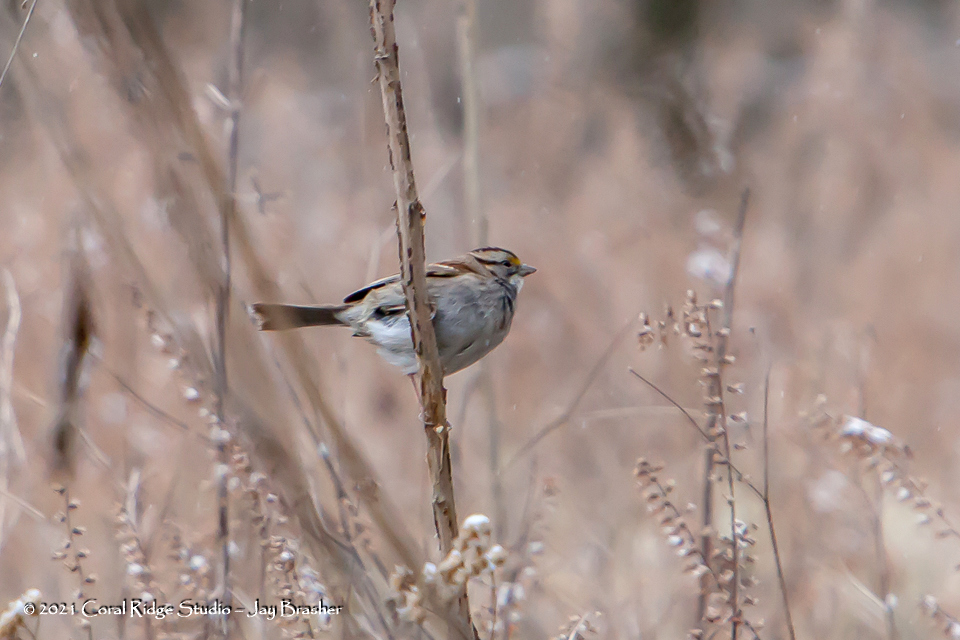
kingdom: Animalia
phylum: Chordata
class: Aves
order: Passeriformes
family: Passerellidae
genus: Zonotrichia
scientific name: Zonotrichia albicollis
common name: White-throated sparrow
